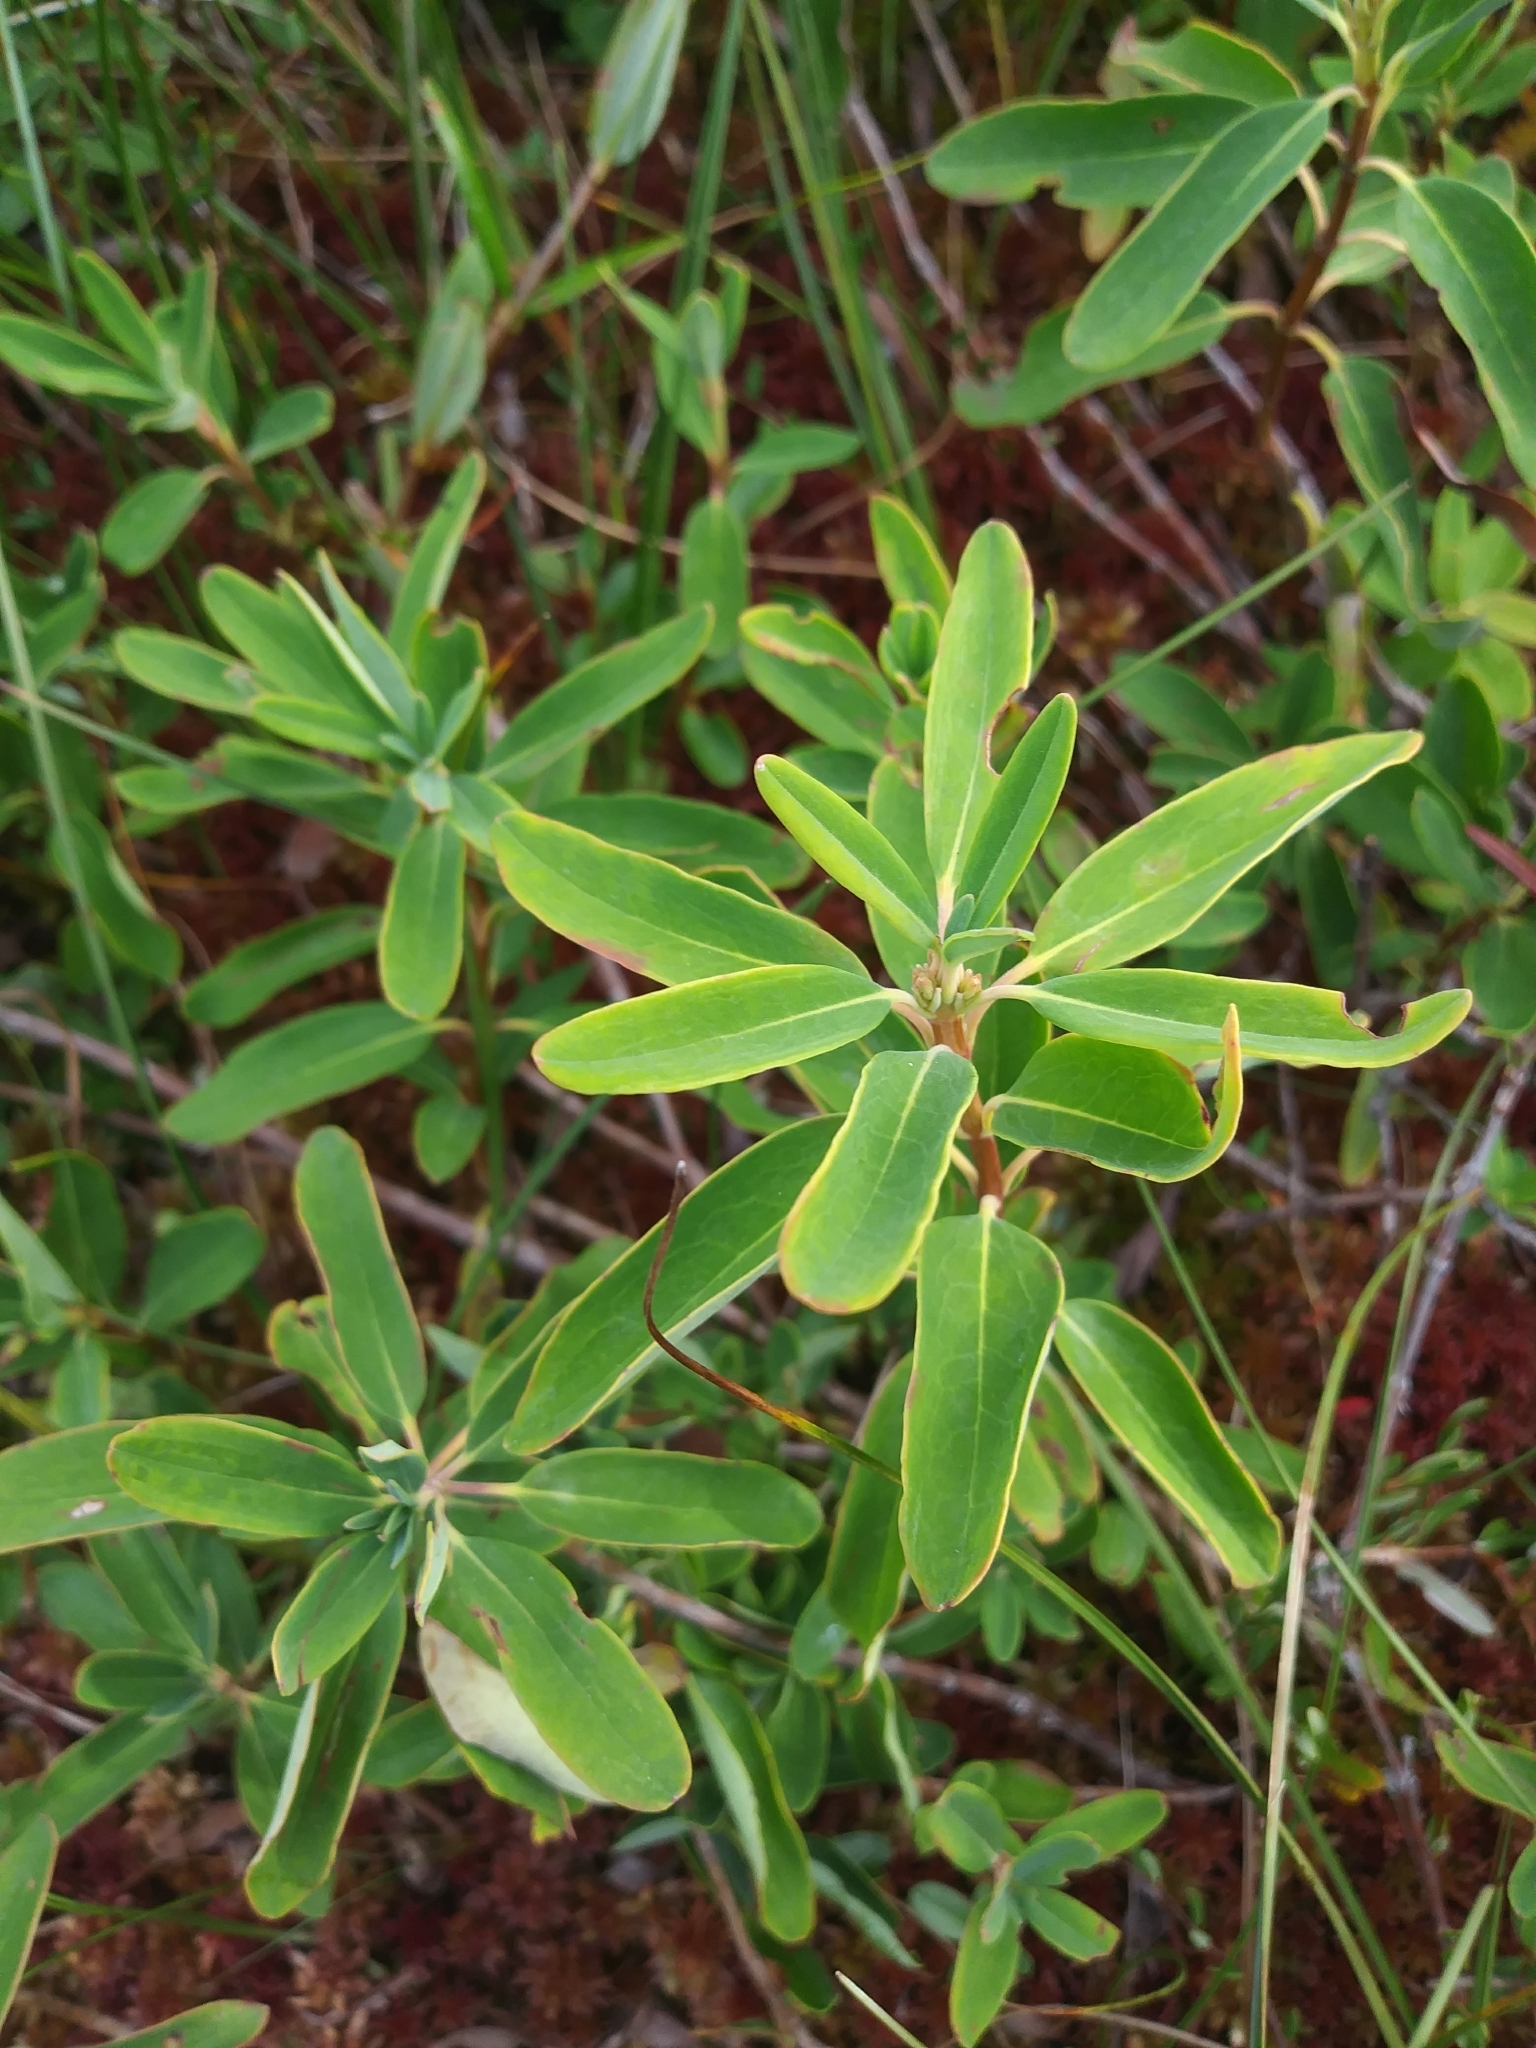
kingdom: Plantae
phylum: Tracheophyta
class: Magnoliopsida
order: Ericales
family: Ericaceae
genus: Kalmia
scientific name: Kalmia angustifolia
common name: Sheep-laurel
